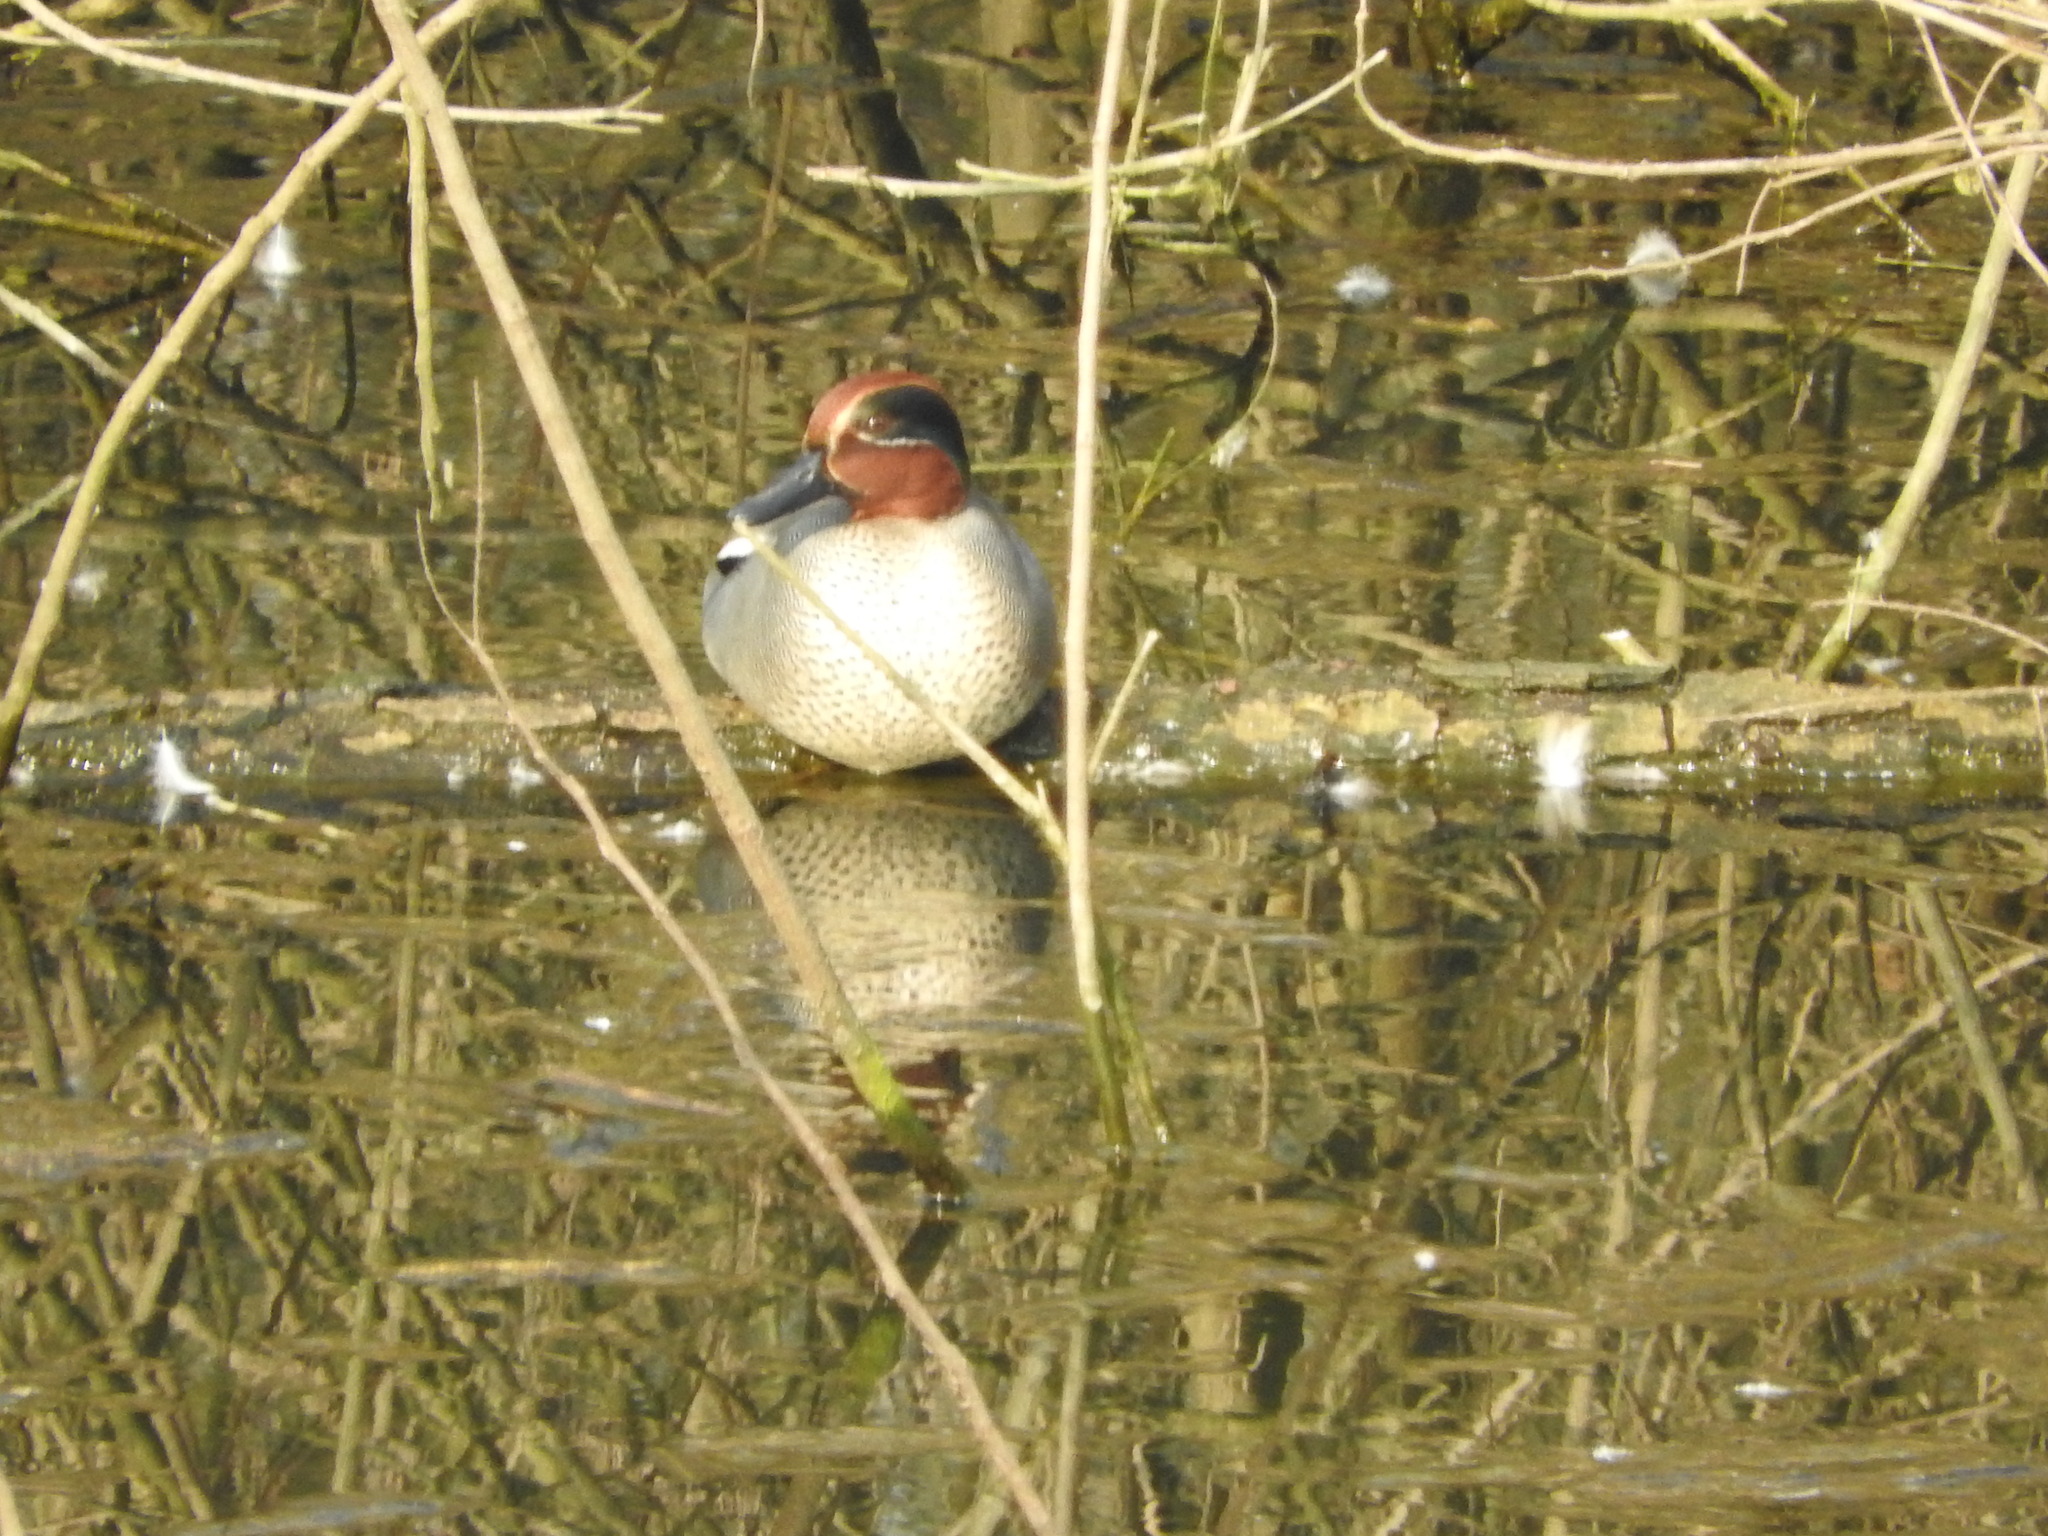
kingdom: Animalia
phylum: Chordata
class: Aves
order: Anseriformes
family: Anatidae
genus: Anas
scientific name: Anas crecca
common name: Eurasian teal
